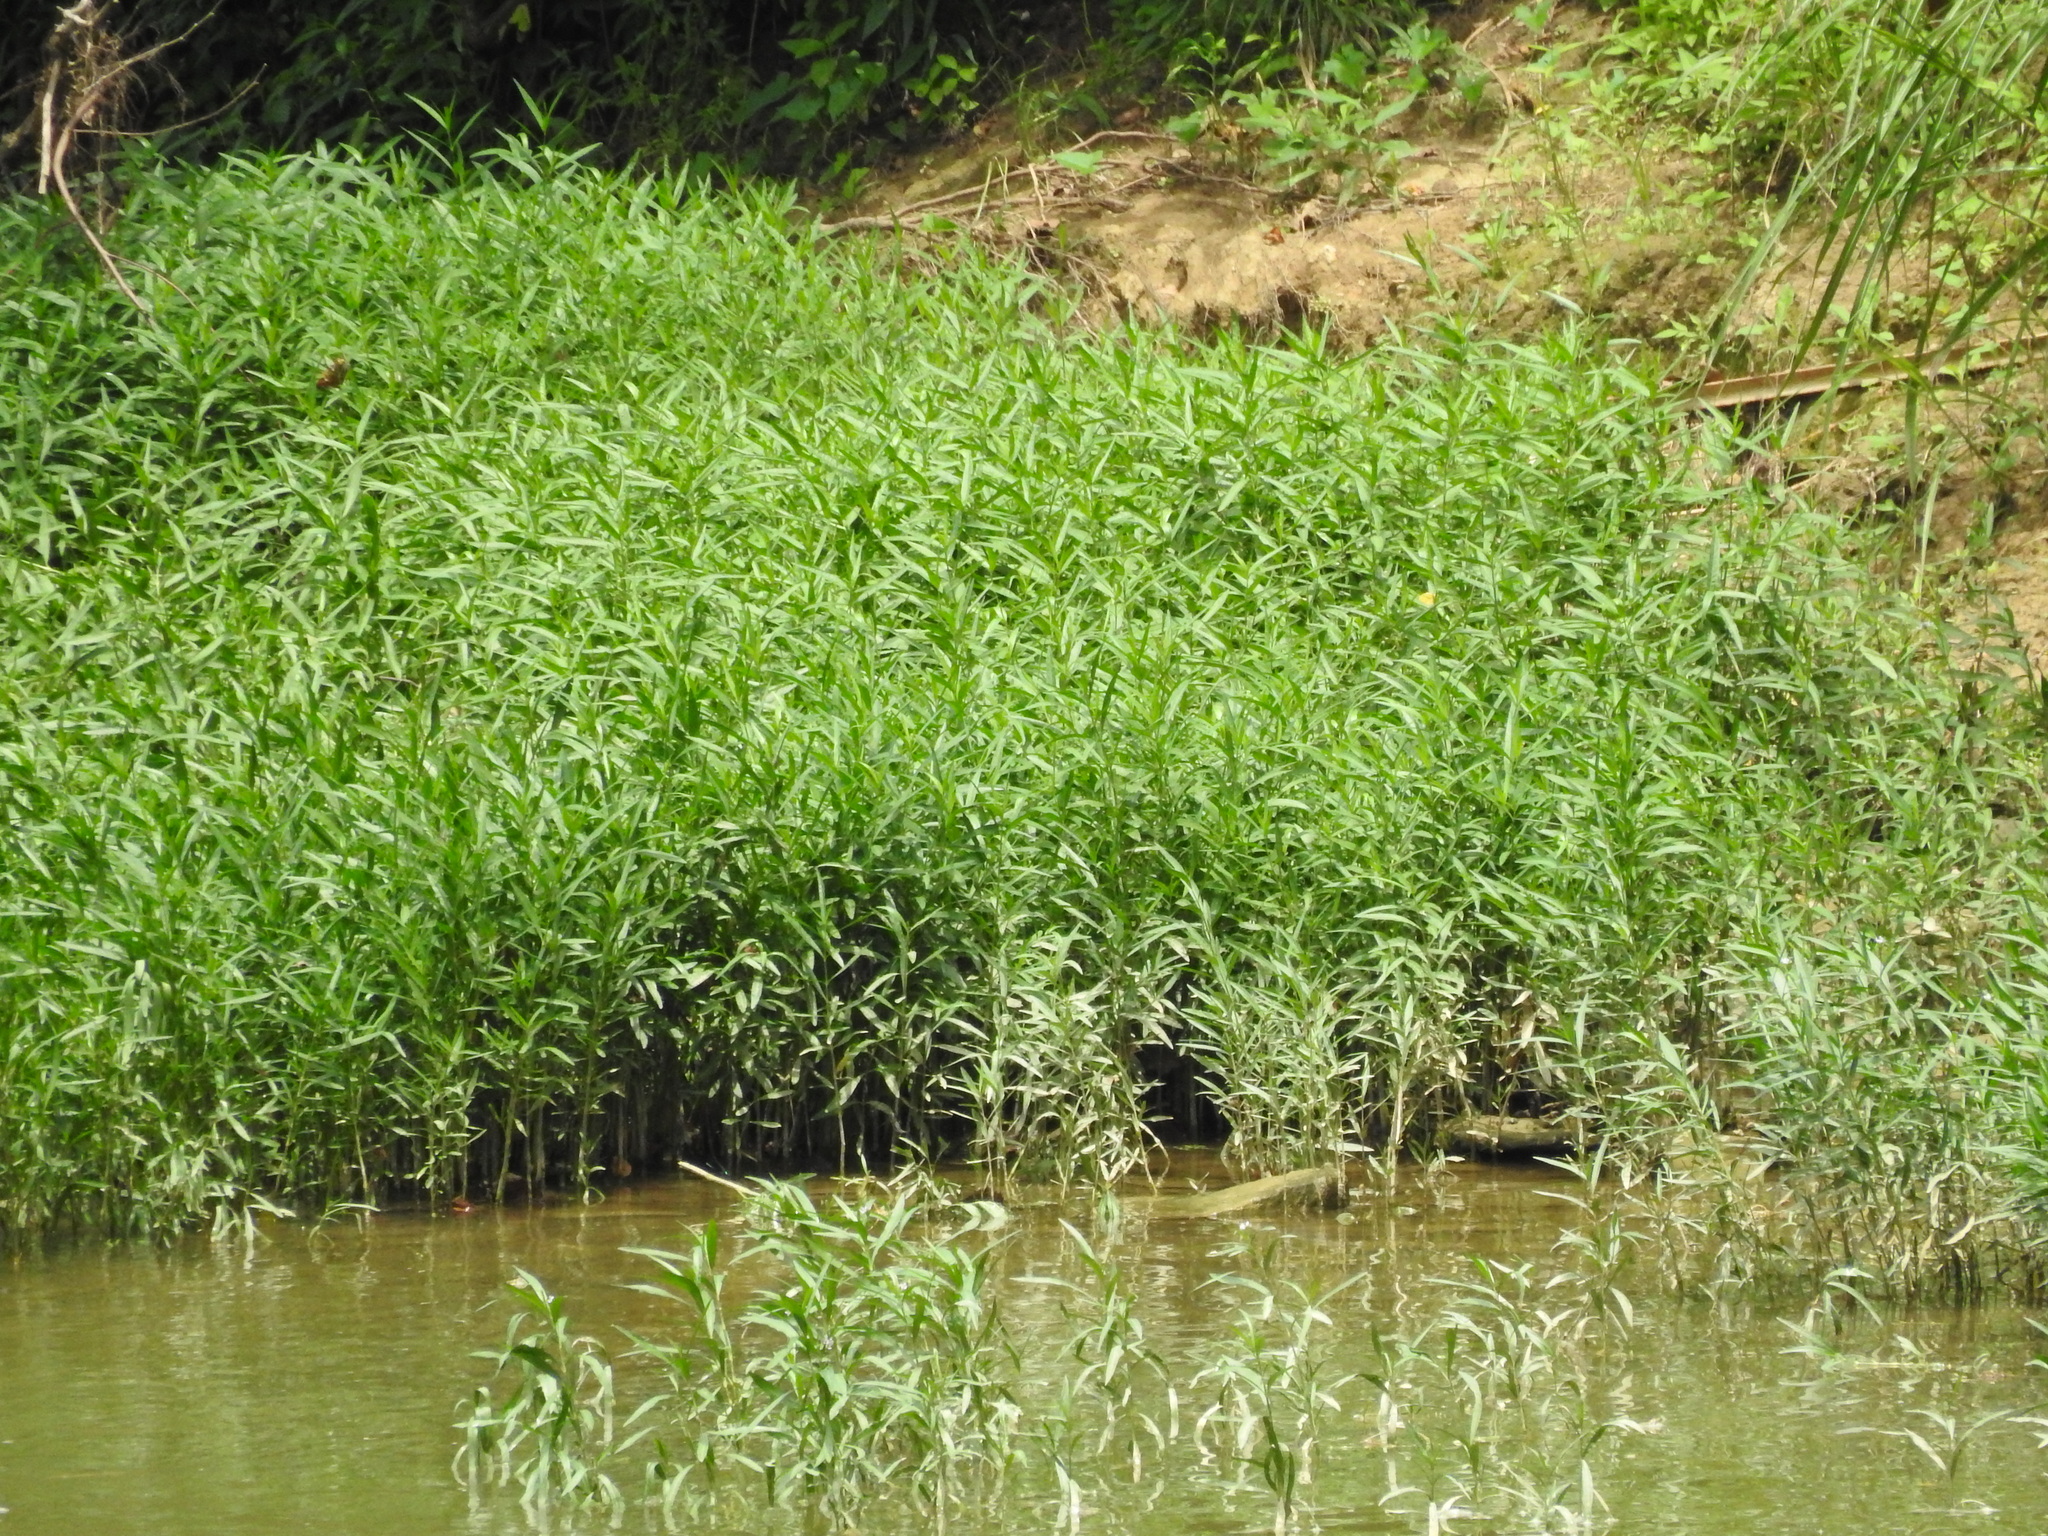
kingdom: Plantae
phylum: Tracheophyta
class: Magnoliopsida
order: Lamiales
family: Acanthaceae
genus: Dianthera
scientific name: Dianthera americana
